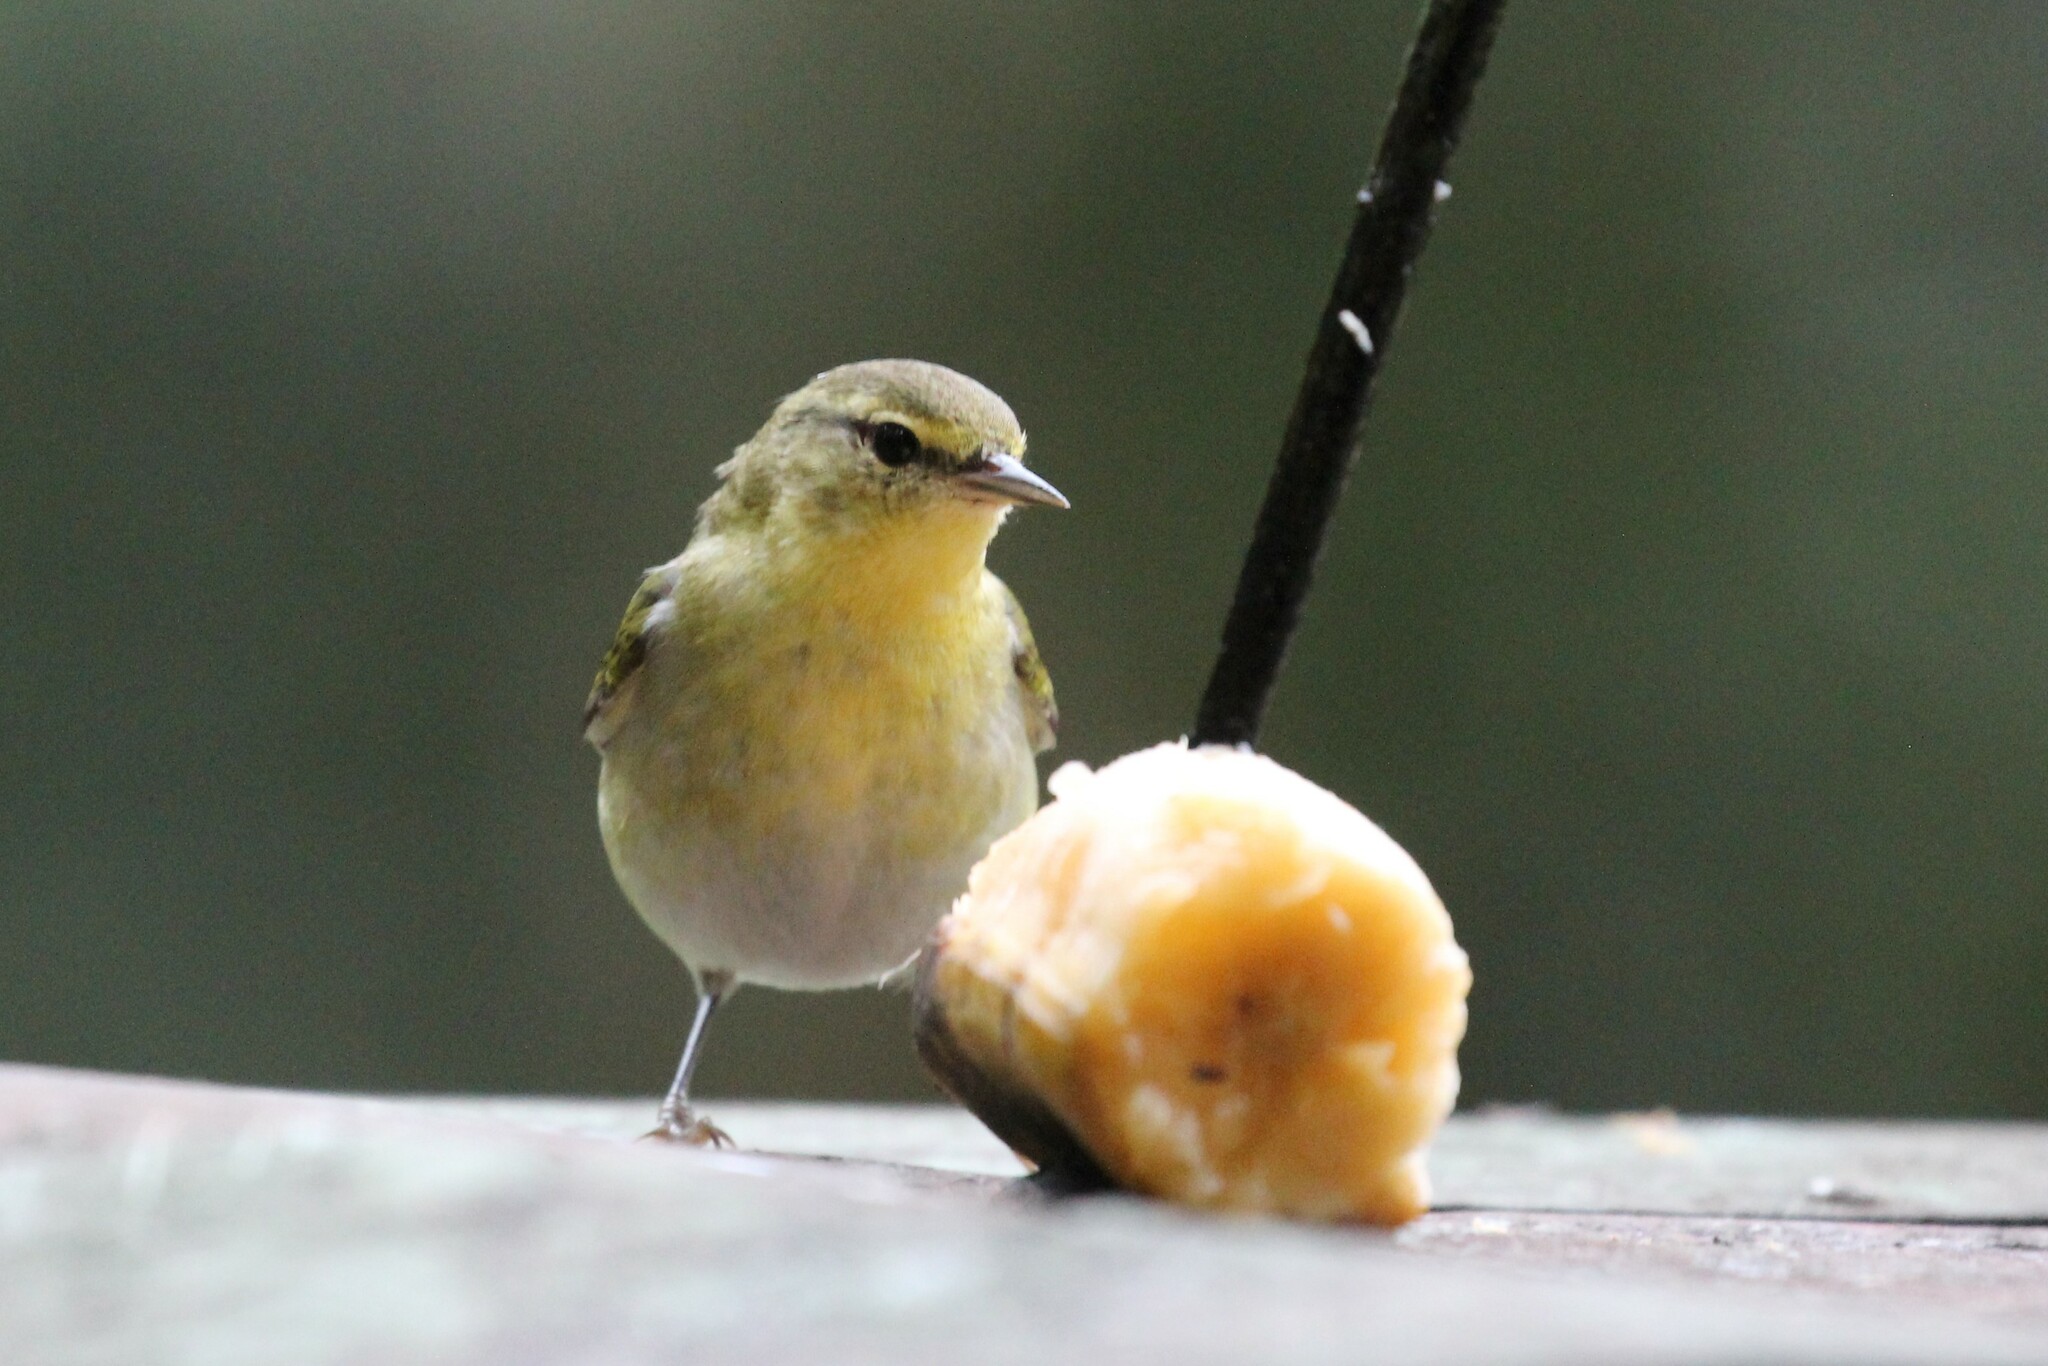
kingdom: Animalia
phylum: Chordata
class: Aves
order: Passeriformes
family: Parulidae
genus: Leiothlypis
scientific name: Leiothlypis peregrina
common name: Tennessee warbler
